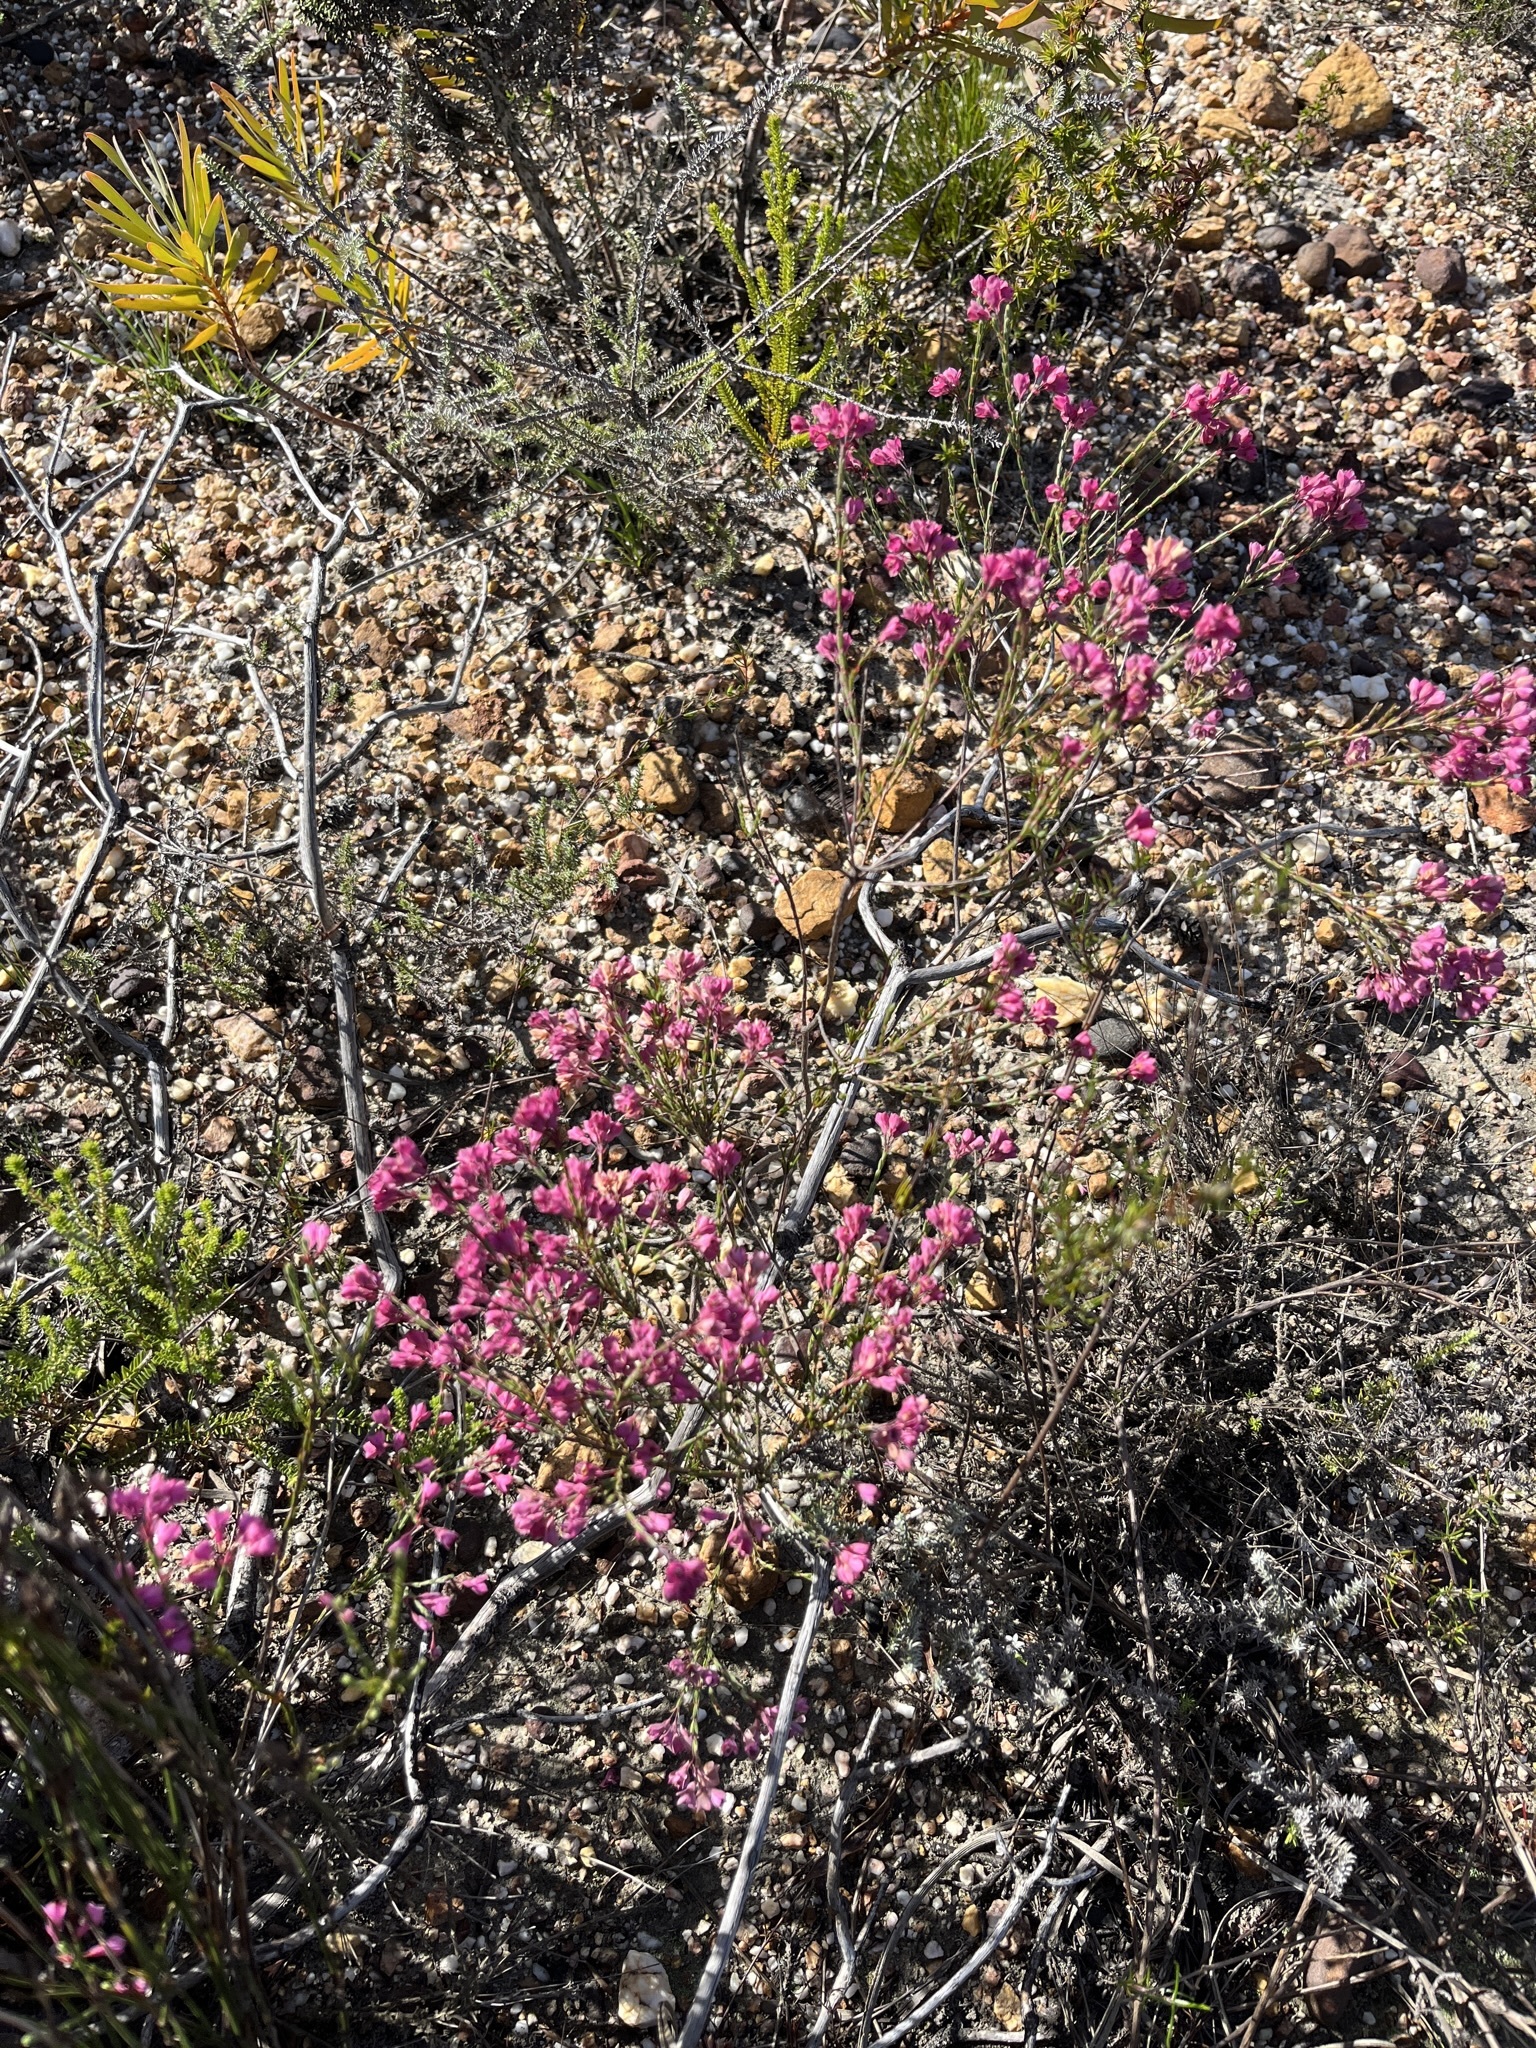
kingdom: Plantae
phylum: Tracheophyta
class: Magnoliopsida
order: Ericales
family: Ericaceae
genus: Erica
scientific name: Erica corifolia
